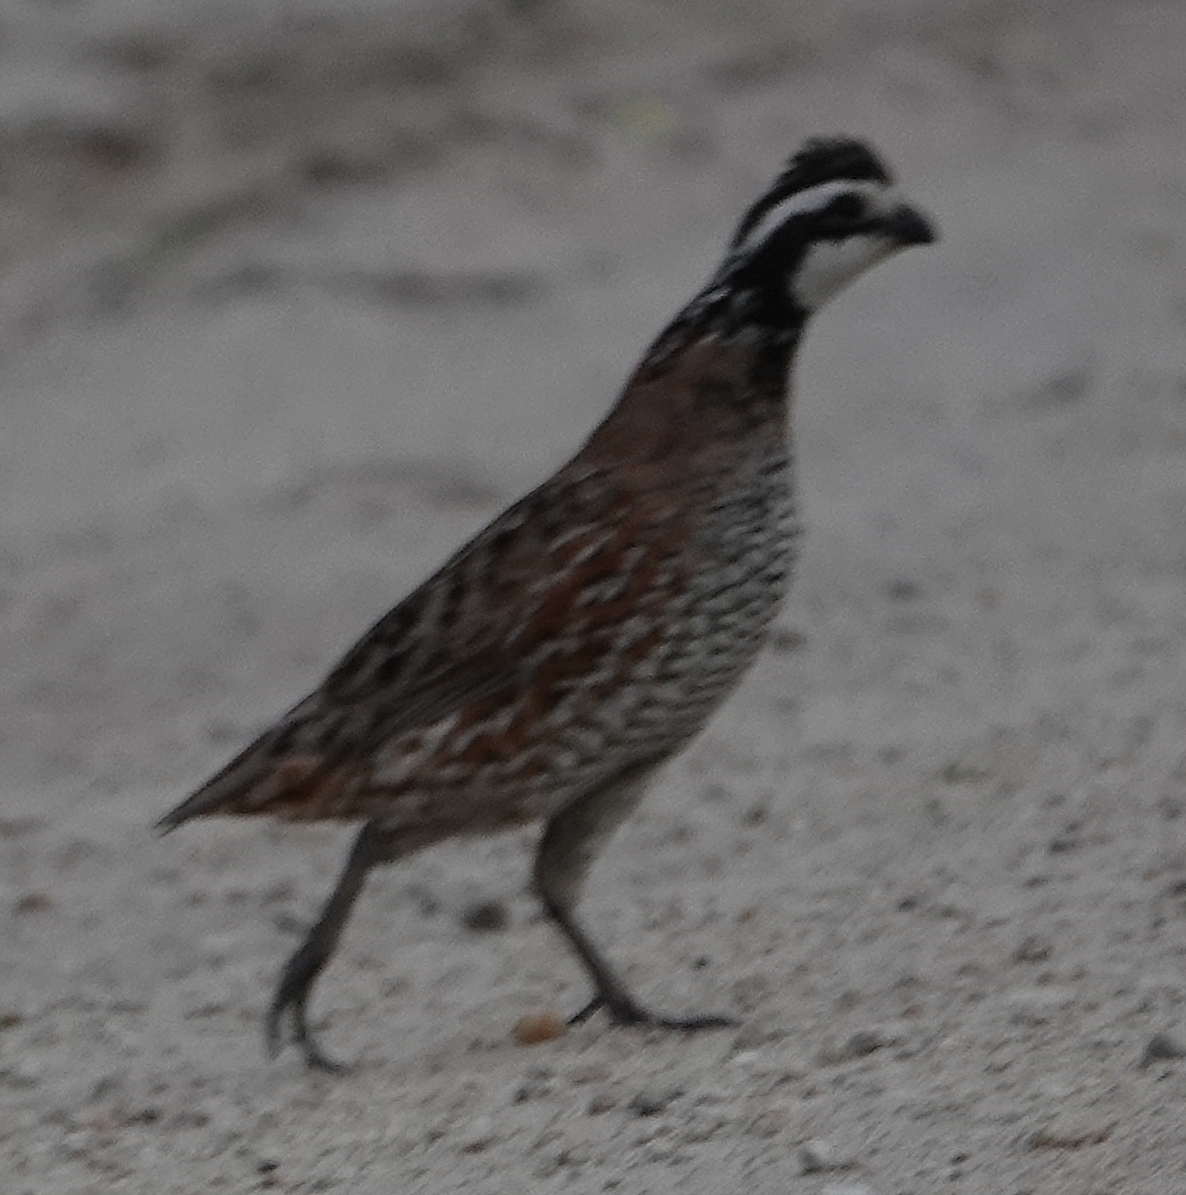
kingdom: Animalia
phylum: Chordata
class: Aves
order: Galliformes
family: Odontophoridae
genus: Colinus
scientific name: Colinus virginianus
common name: Northern bobwhite
